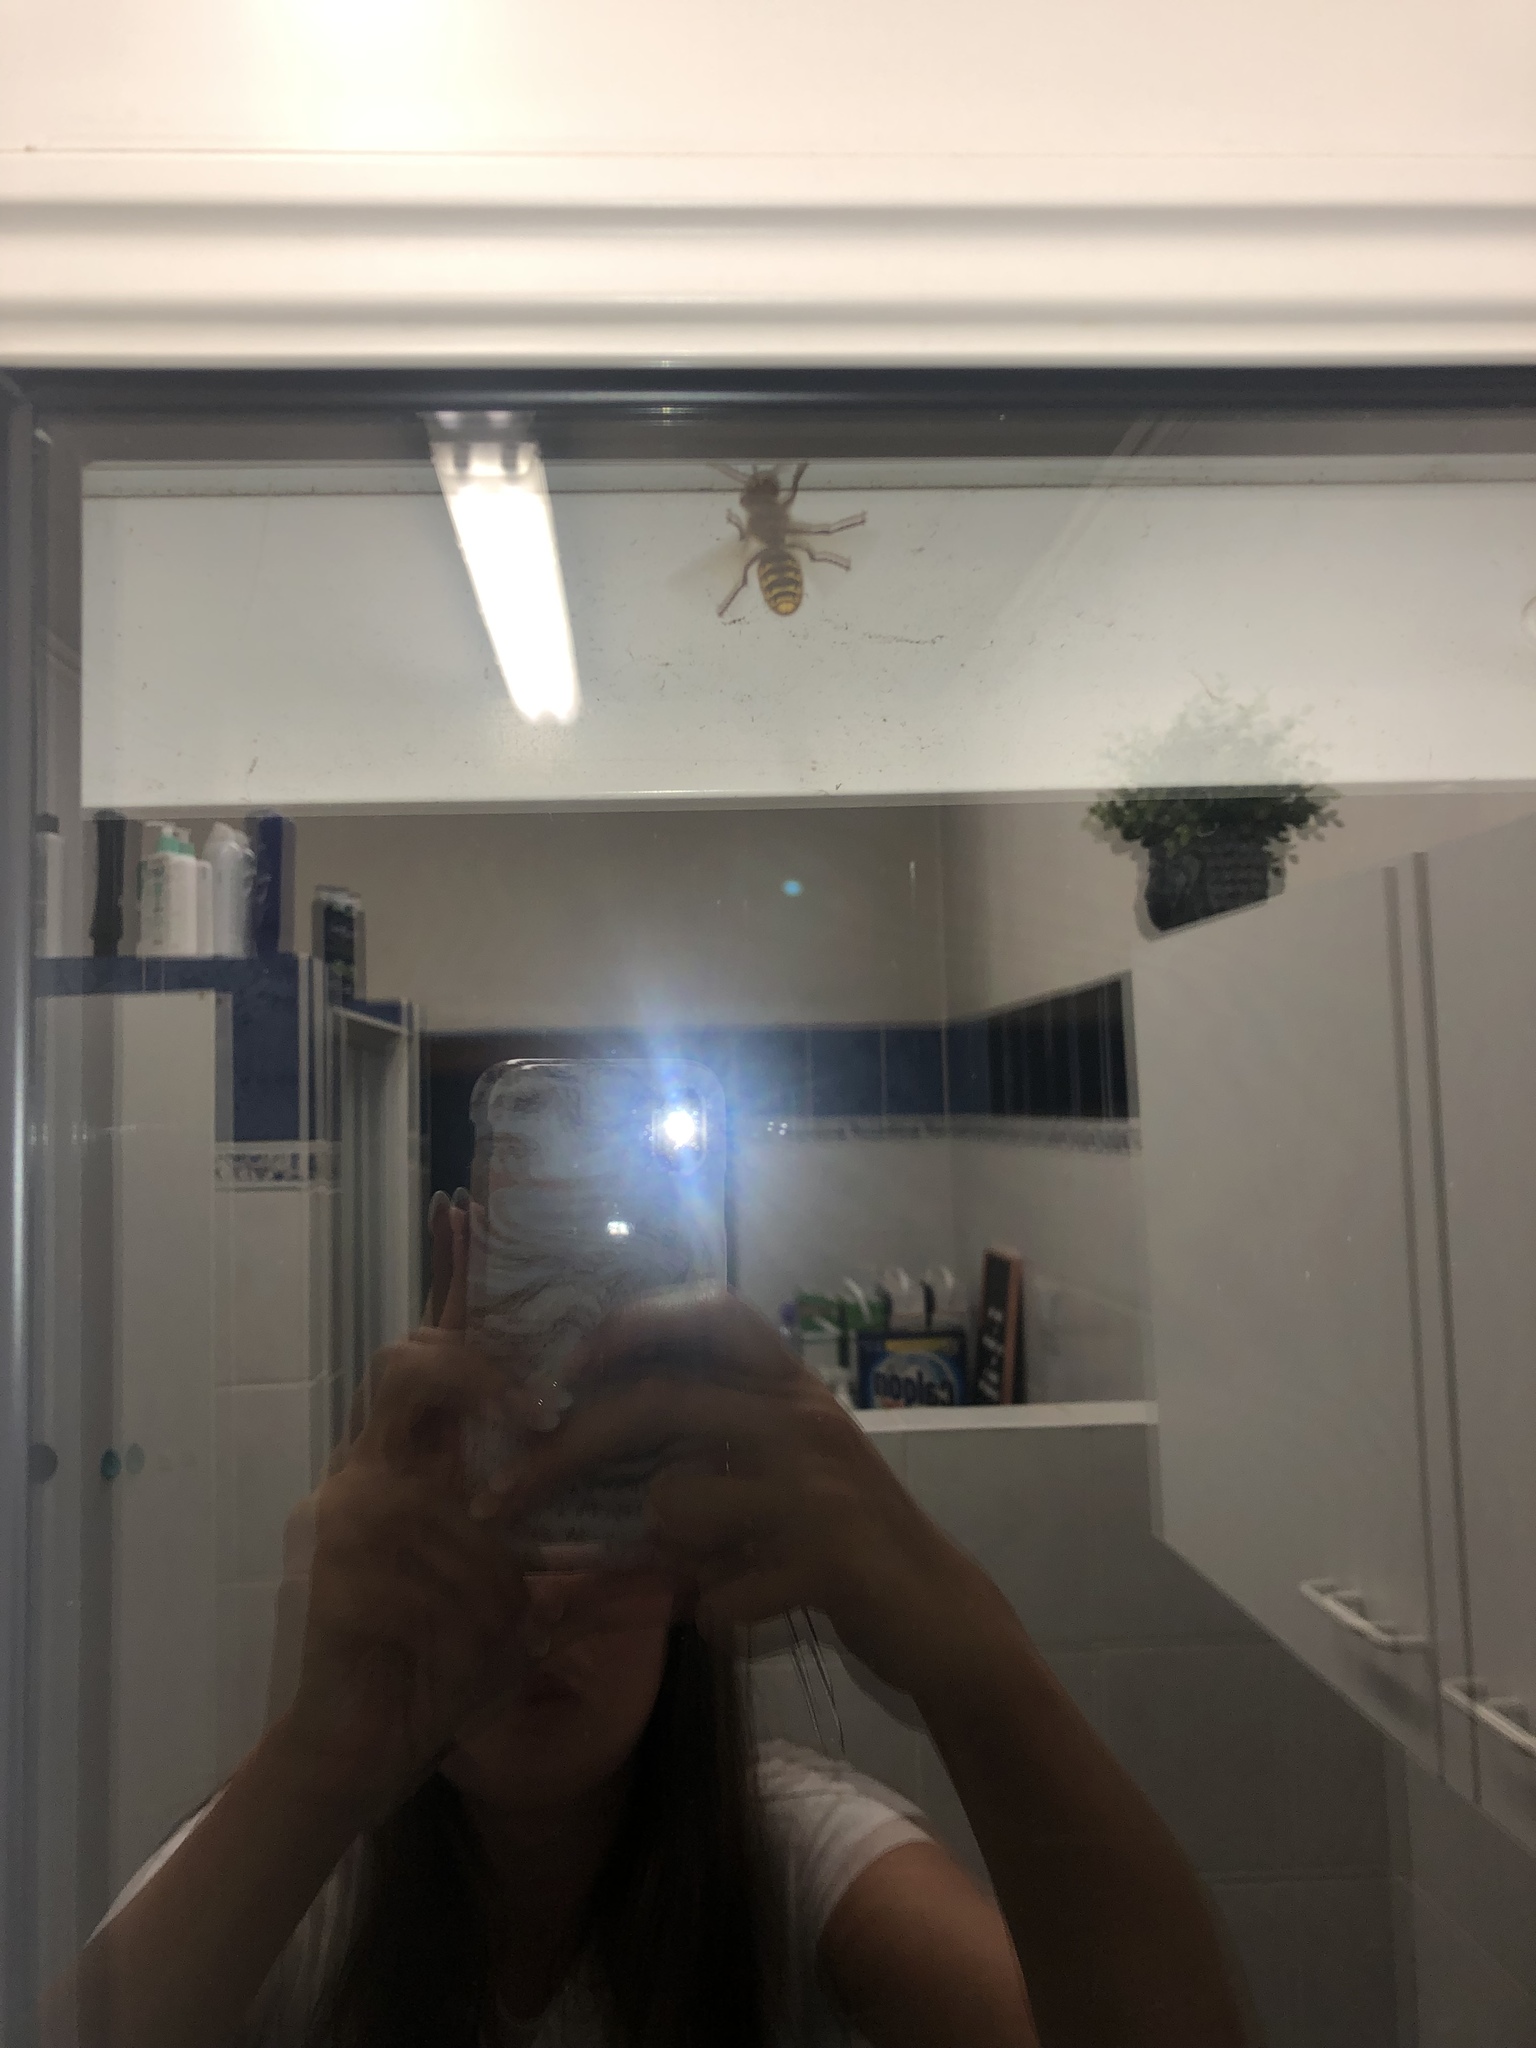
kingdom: Animalia
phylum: Arthropoda
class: Insecta
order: Hymenoptera
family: Vespidae
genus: Vespa
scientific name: Vespa crabro
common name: Hornet
